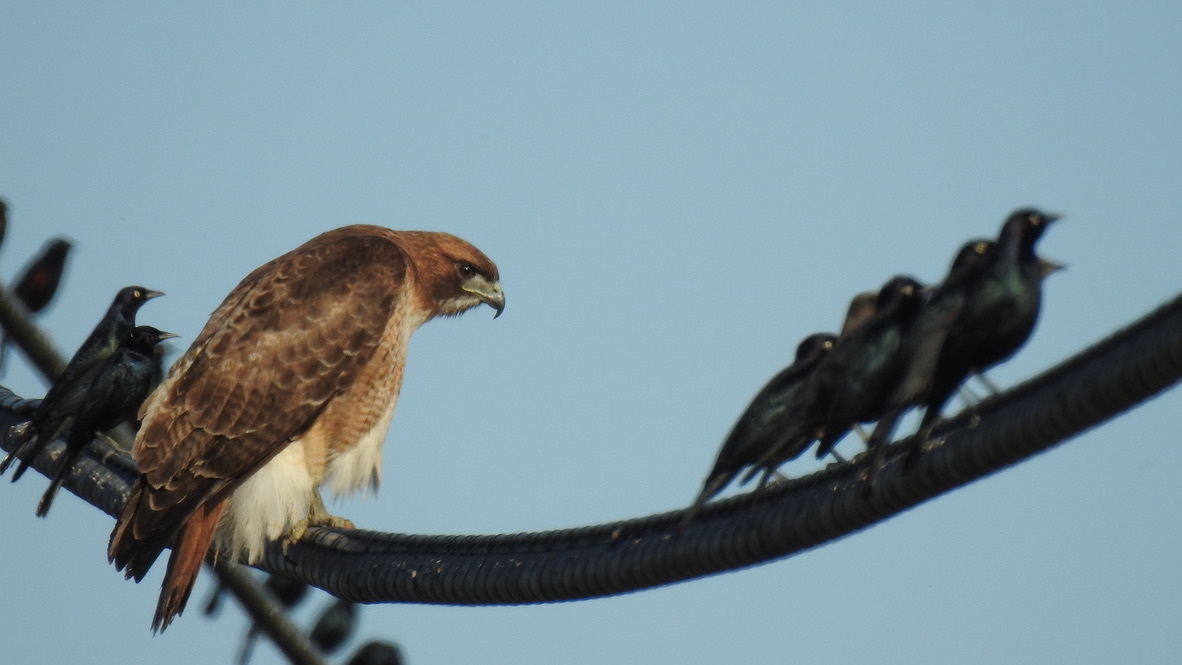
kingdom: Animalia
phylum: Chordata
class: Aves
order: Accipitriformes
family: Accipitridae
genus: Buteo
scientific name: Buteo jamaicensis
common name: Red-tailed hawk
